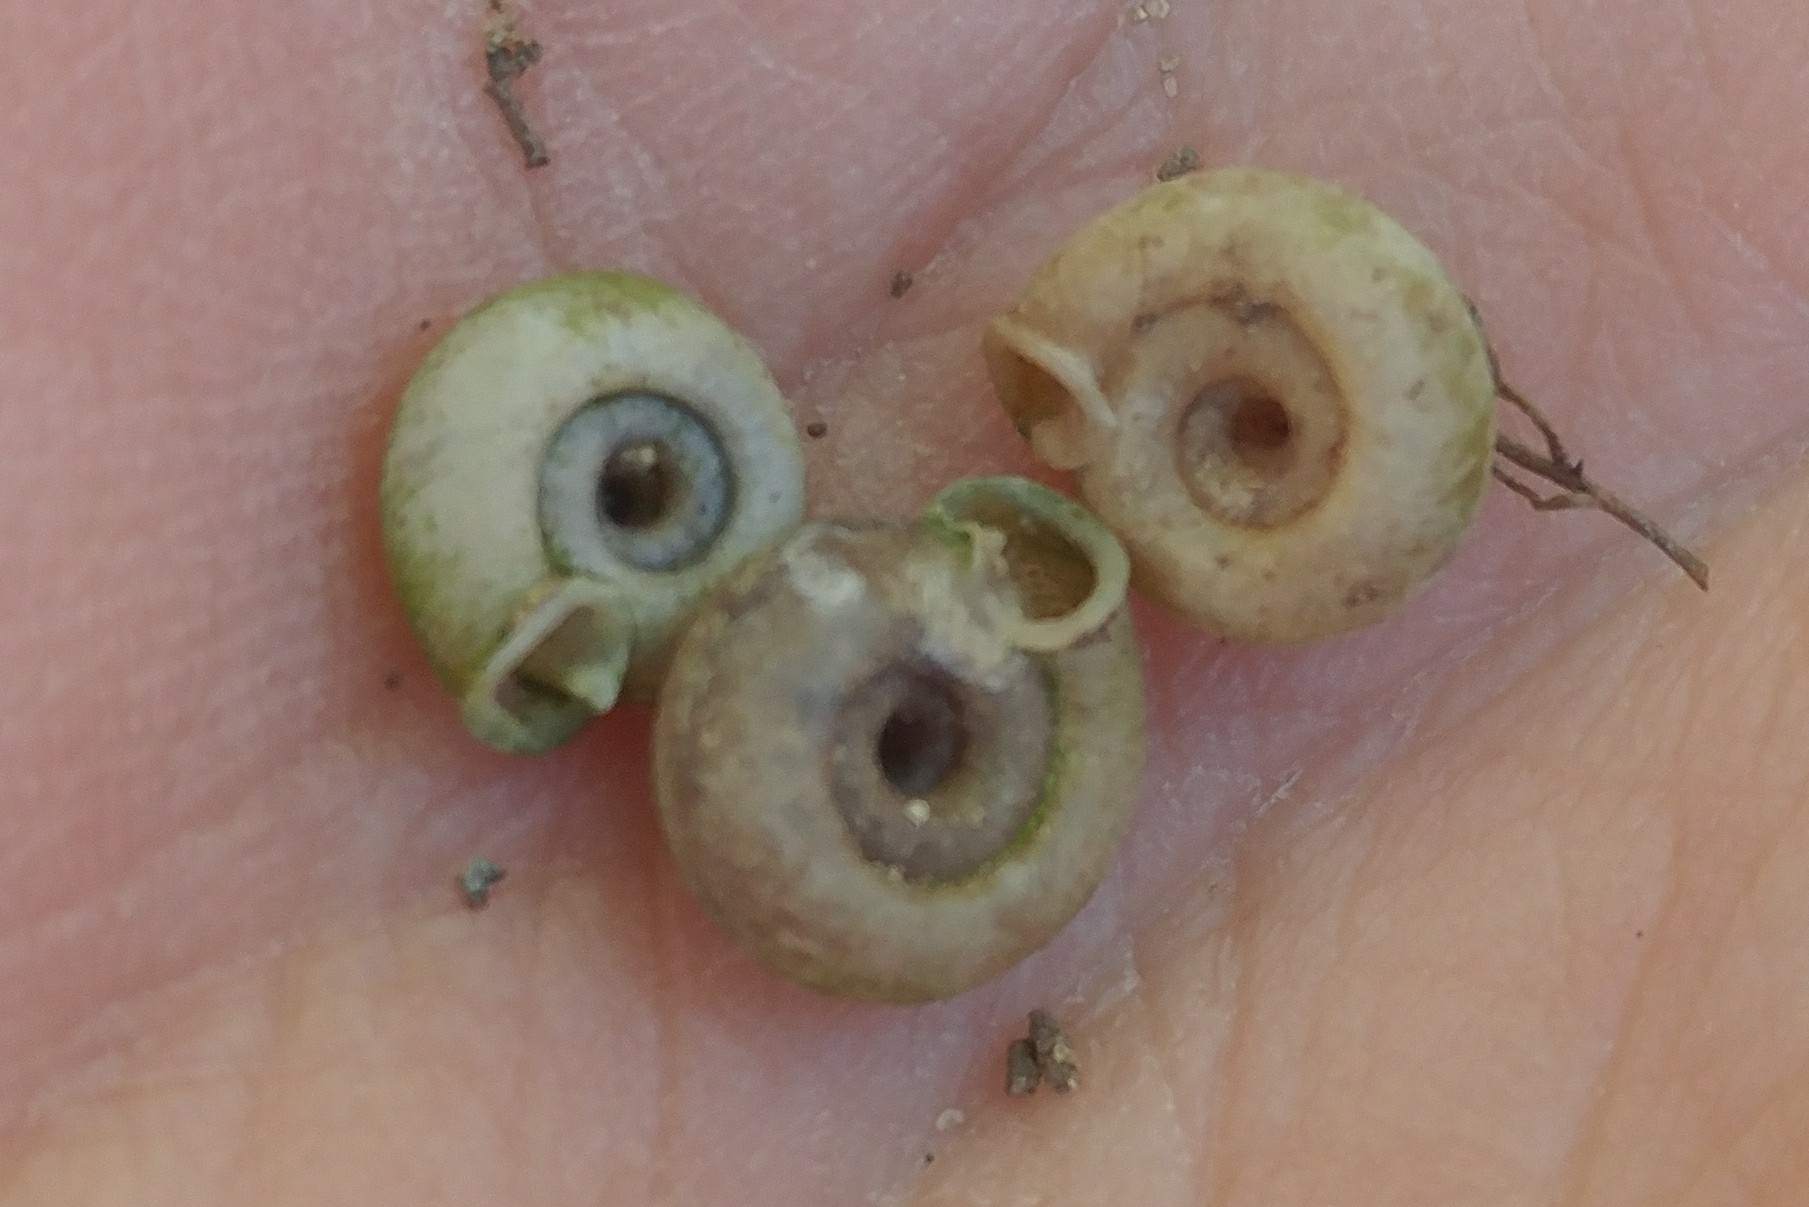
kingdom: Animalia
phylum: Mollusca
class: Gastropoda
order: Stylommatophora
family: Polygyridae
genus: Polygyra
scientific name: Polygyra cereolus
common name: Southern flatcone snail
